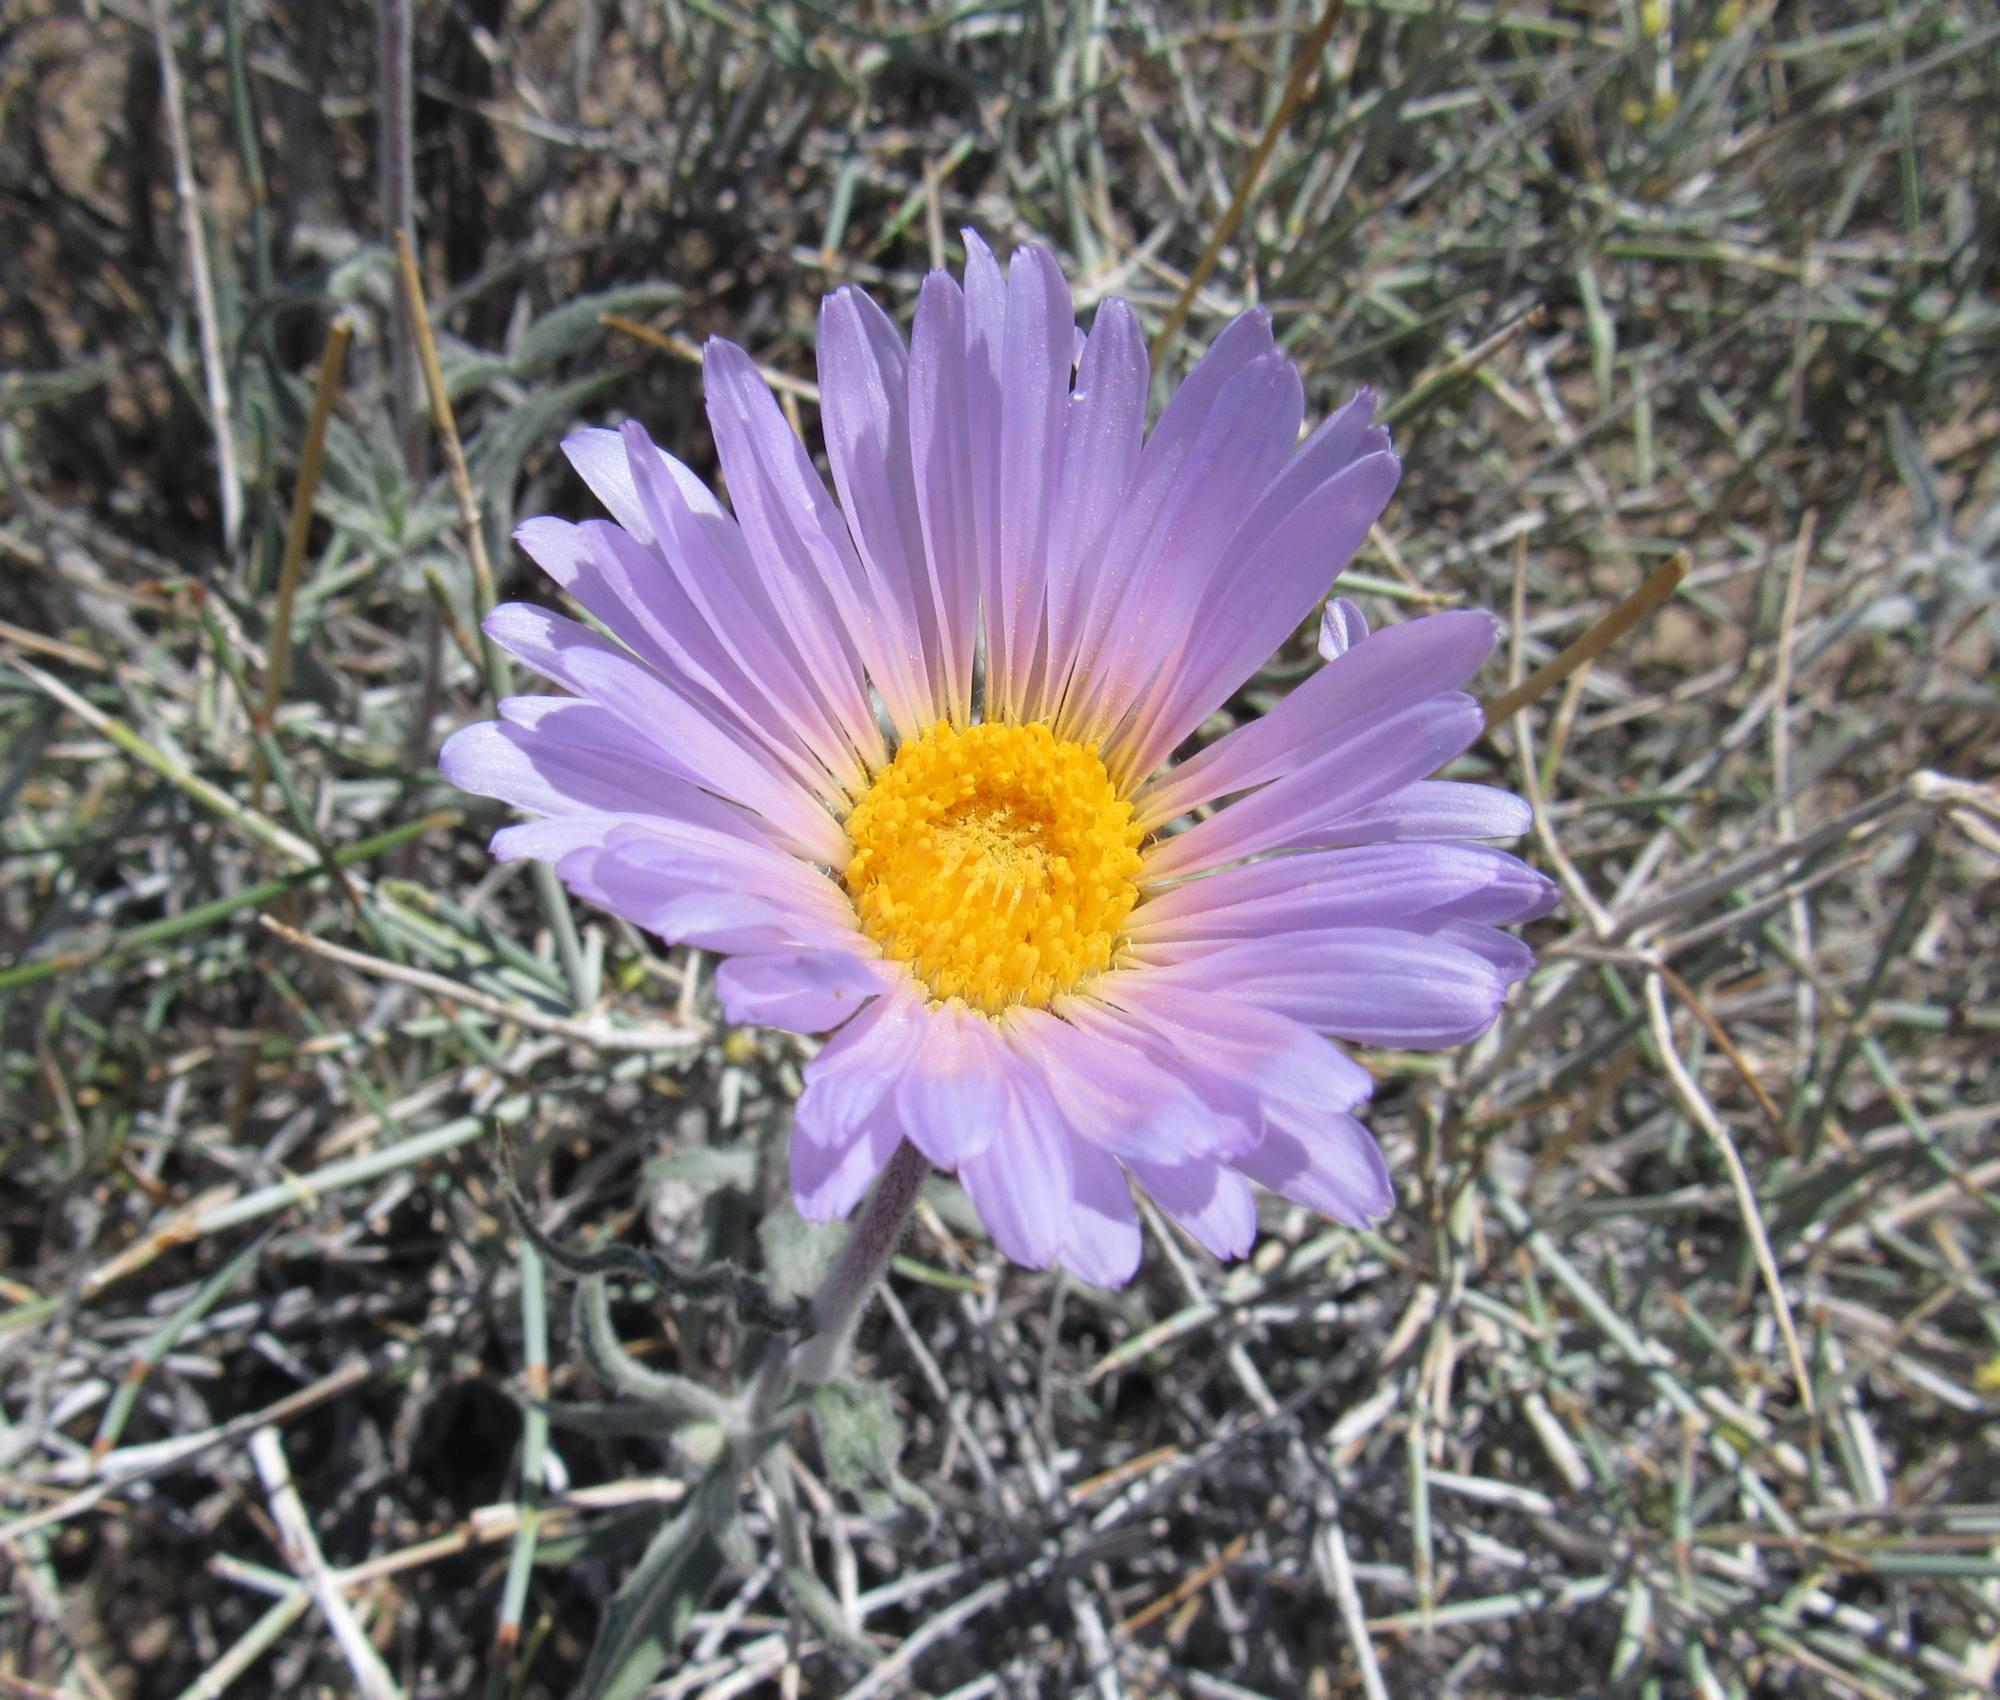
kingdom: Plantae
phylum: Tracheophyta
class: Magnoliopsida
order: Asterales
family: Asteraceae
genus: Xylorhiza
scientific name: Xylorhiza tortifolia
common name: Hurt-leaf woody-aster
